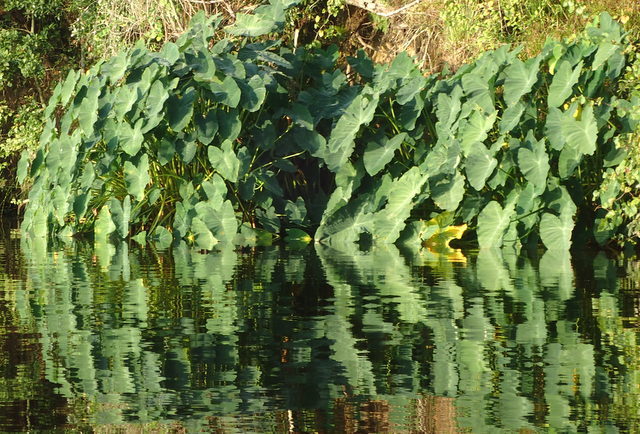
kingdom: Plantae
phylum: Tracheophyta
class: Liliopsida
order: Alismatales
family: Araceae
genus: Colocasia
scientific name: Colocasia esculenta
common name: Taro
